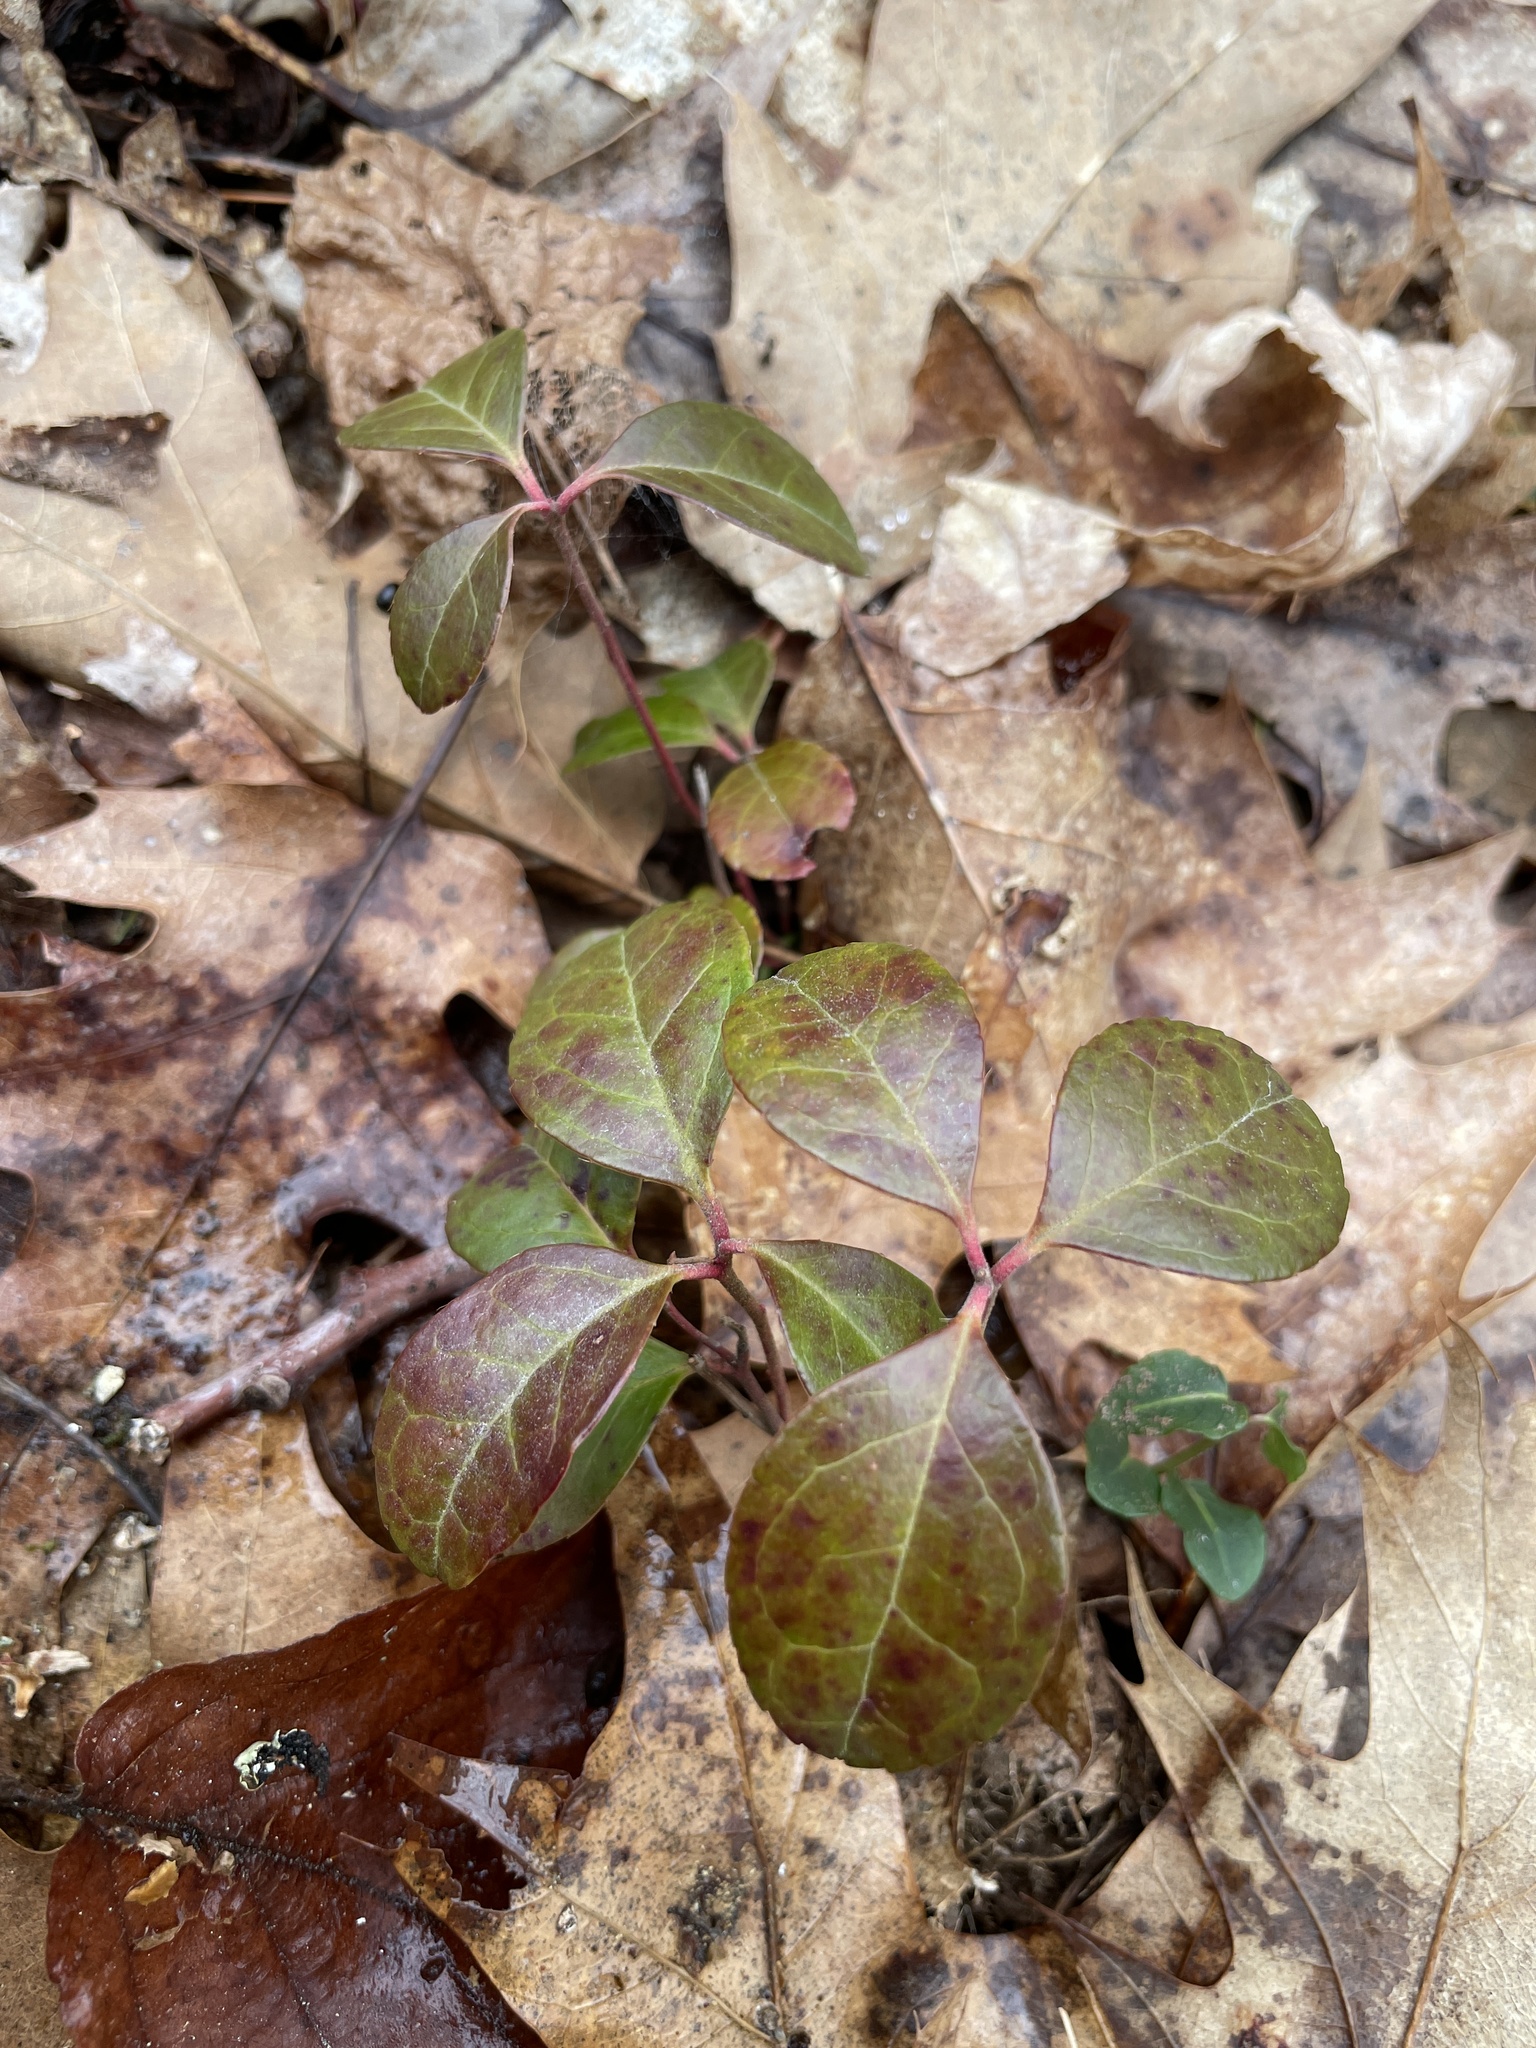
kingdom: Plantae
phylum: Tracheophyta
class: Magnoliopsida
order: Ericales
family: Ericaceae
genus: Gaultheria
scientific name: Gaultheria procumbens
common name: Checkerberry
